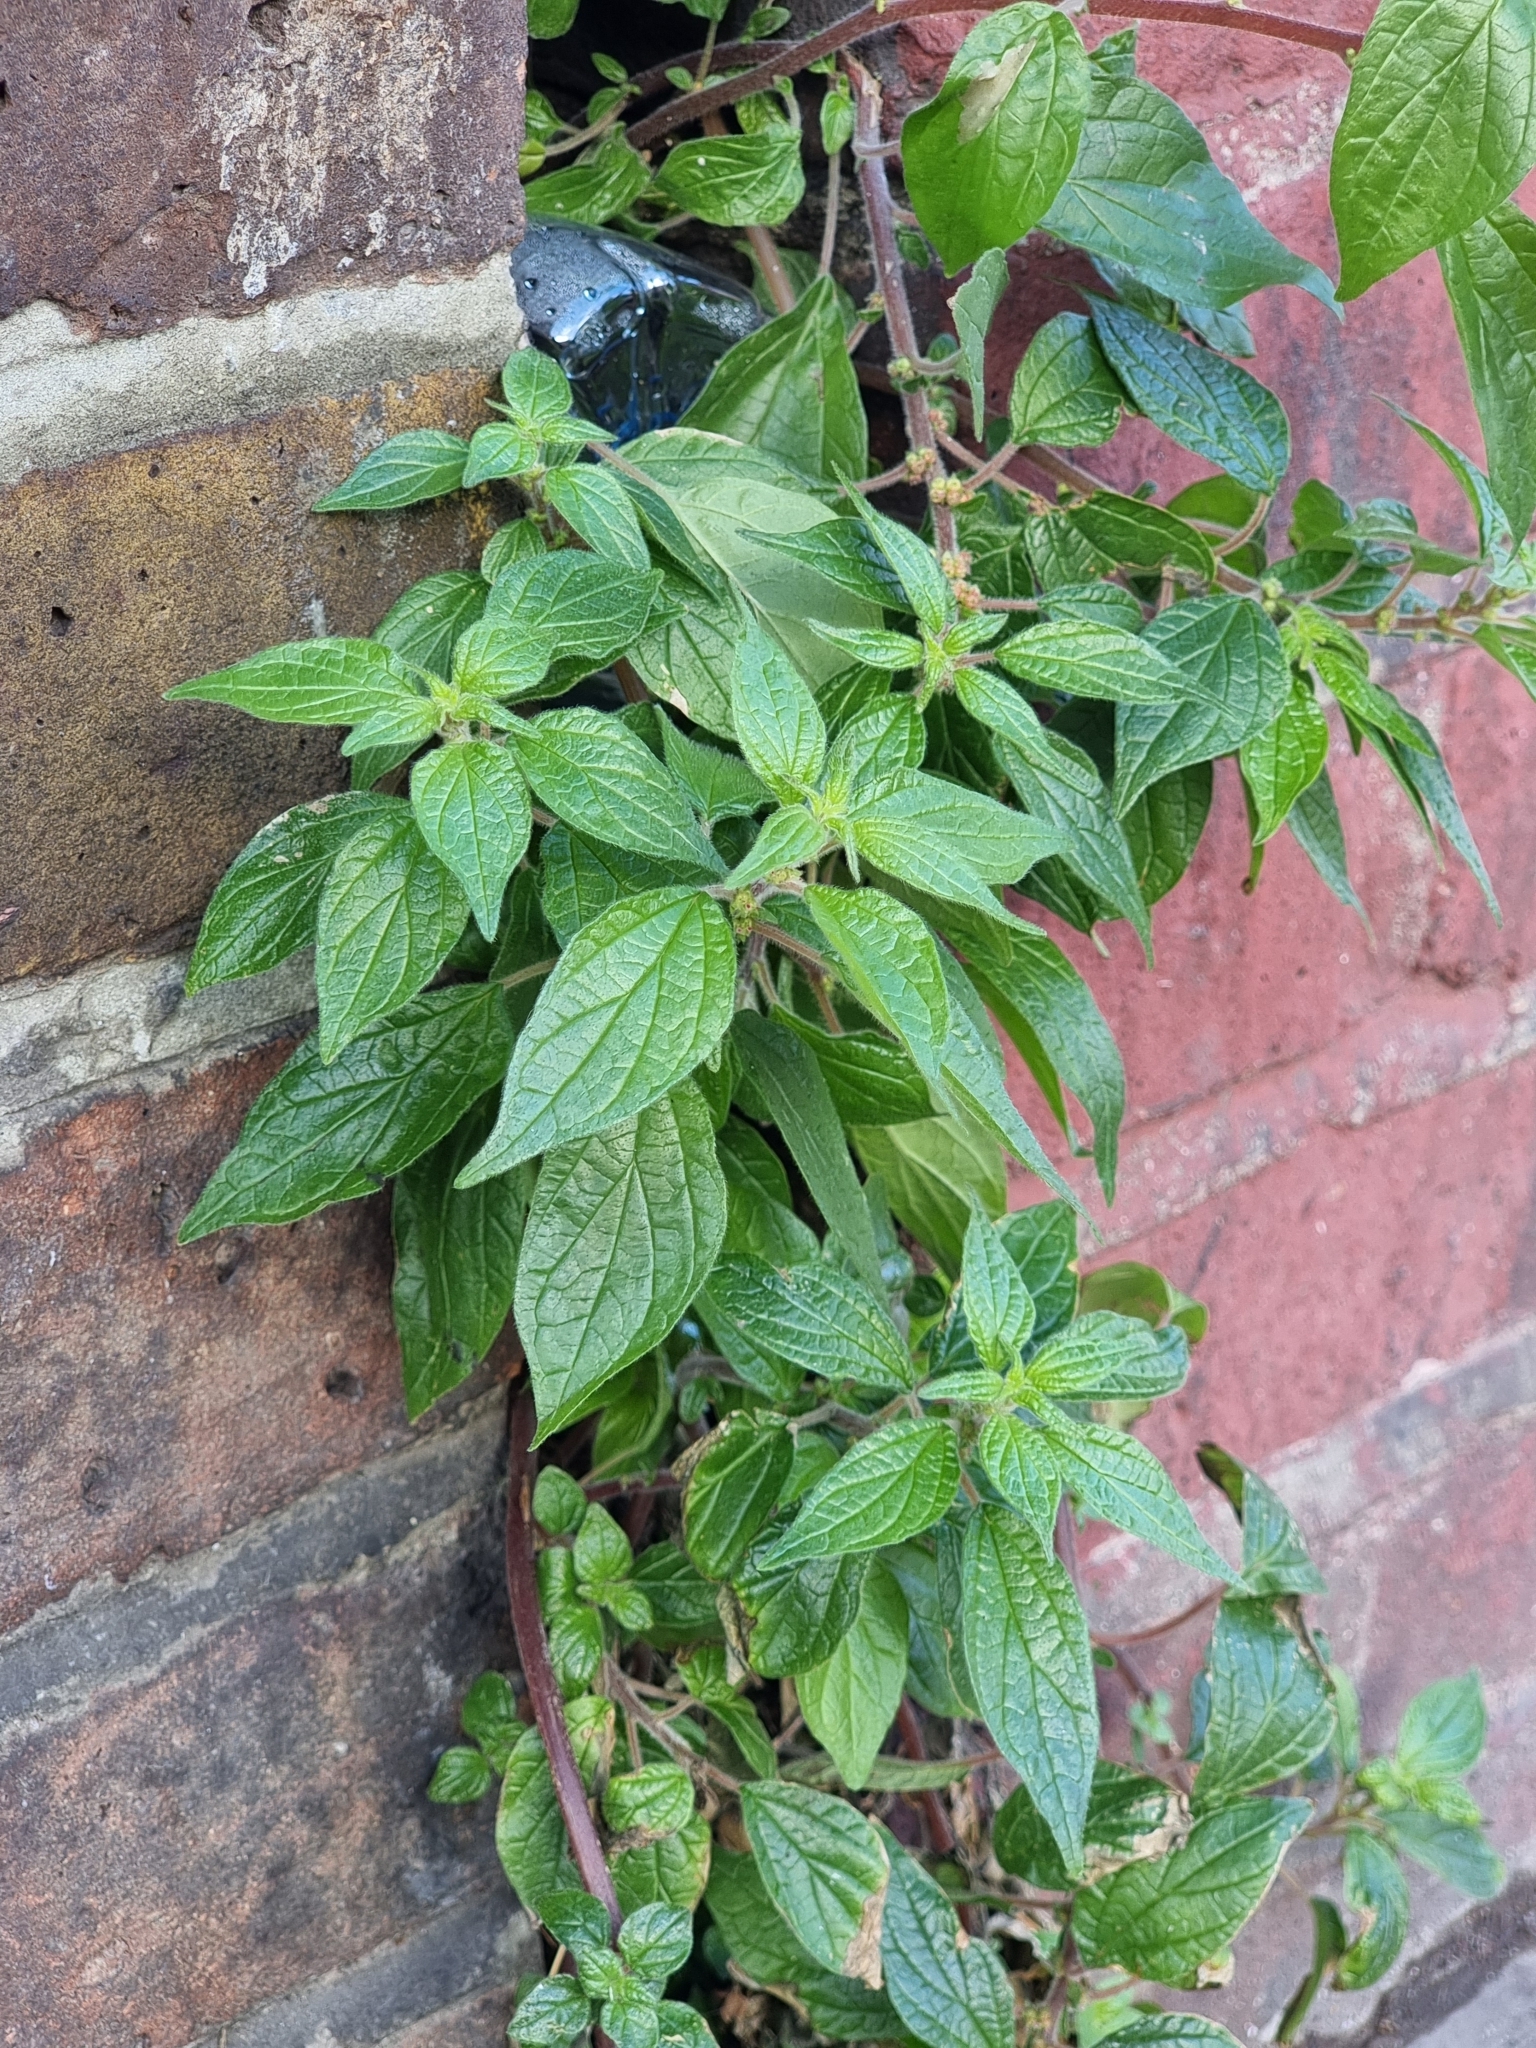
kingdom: Plantae
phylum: Tracheophyta
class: Magnoliopsida
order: Rosales
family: Urticaceae
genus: Parietaria
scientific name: Parietaria judaica
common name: Pellitory-of-the-wall
